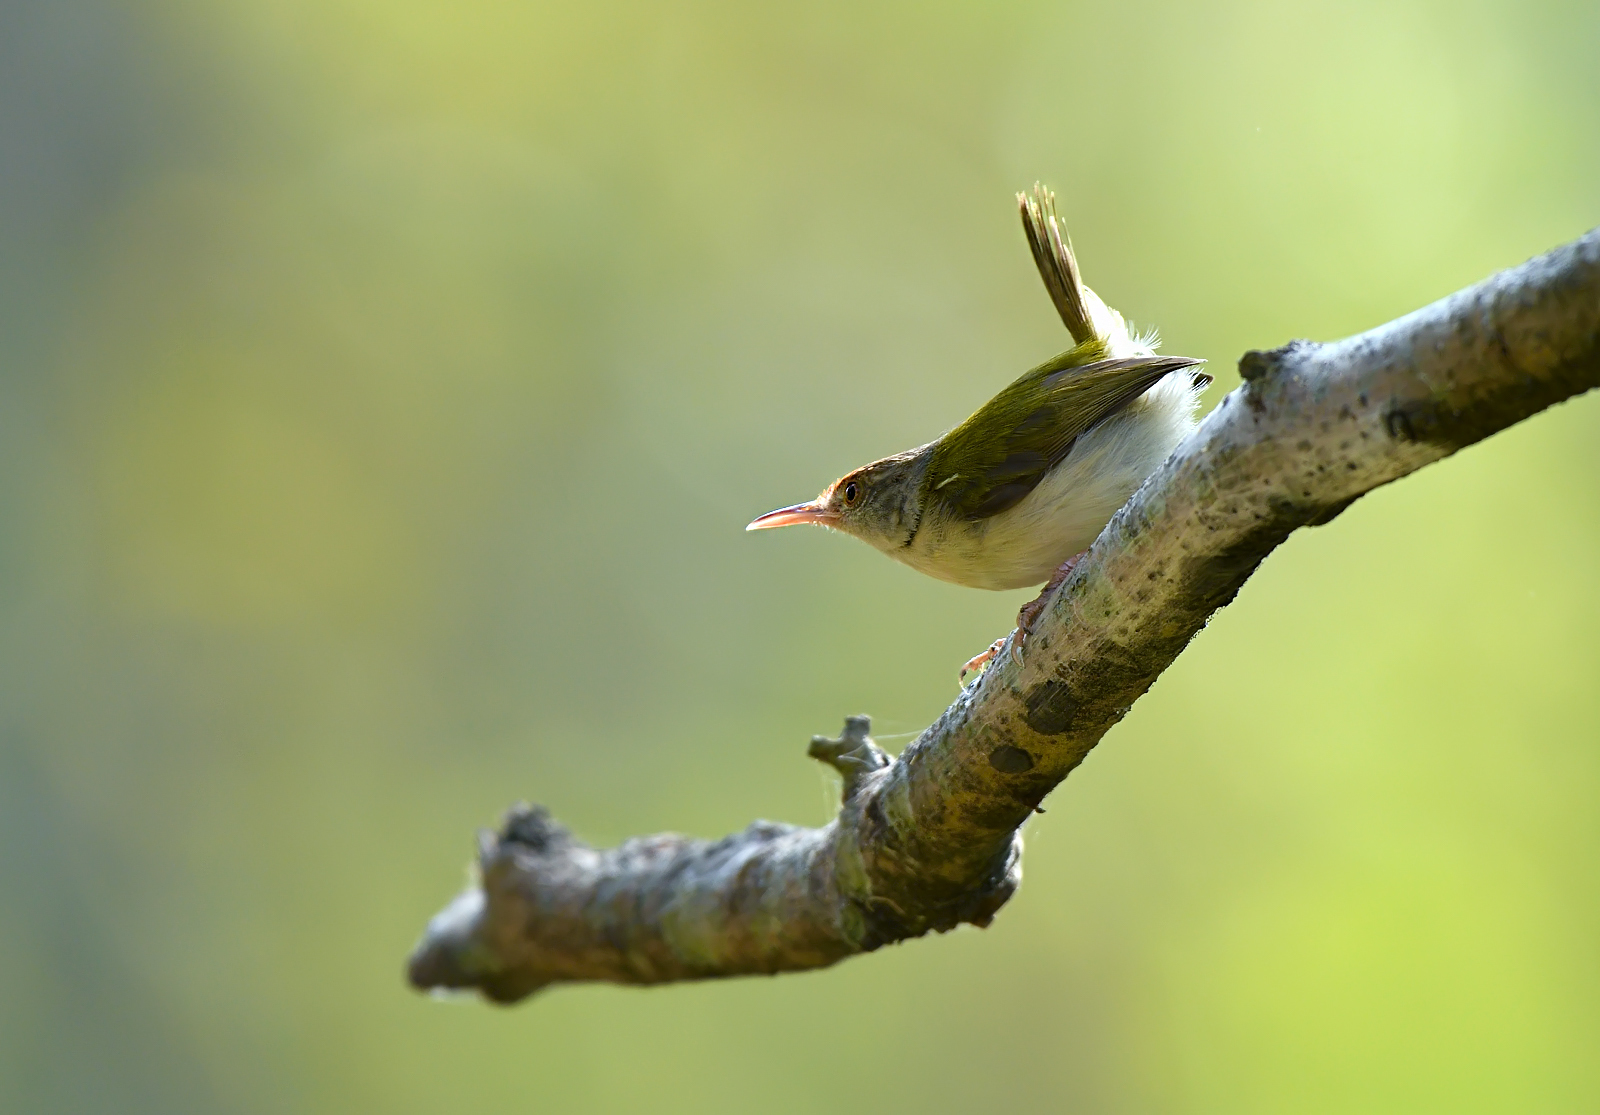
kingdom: Animalia
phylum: Chordata
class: Aves
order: Passeriformes
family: Cisticolidae
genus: Orthotomus
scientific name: Orthotomus sutorius
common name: Common tailorbird
